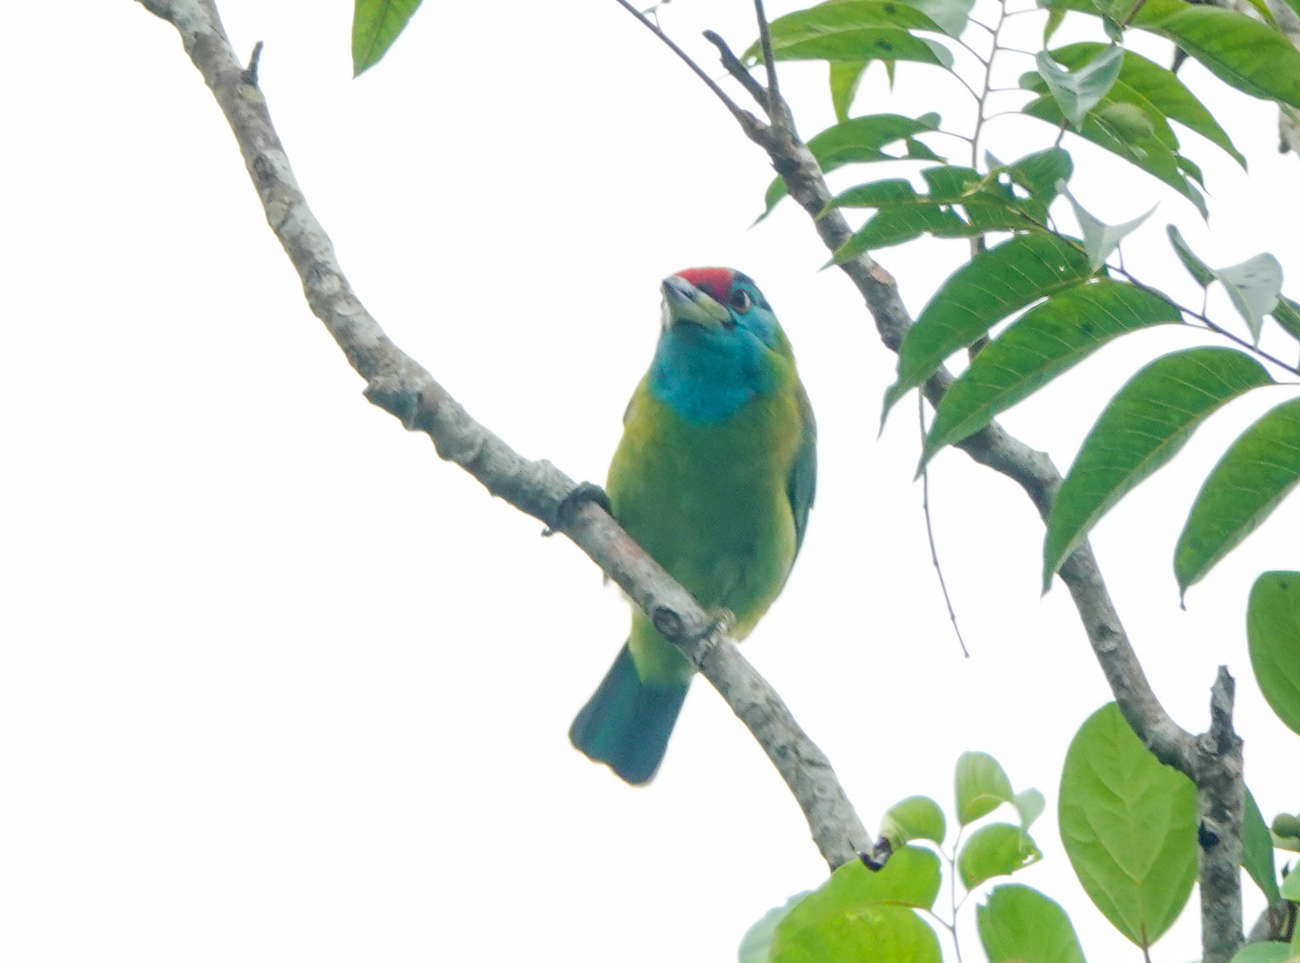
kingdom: Animalia
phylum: Chordata
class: Aves
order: Piciformes
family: Megalaimidae
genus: Psilopogon
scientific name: Psilopogon asiaticus
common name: Blue-throated barbet
